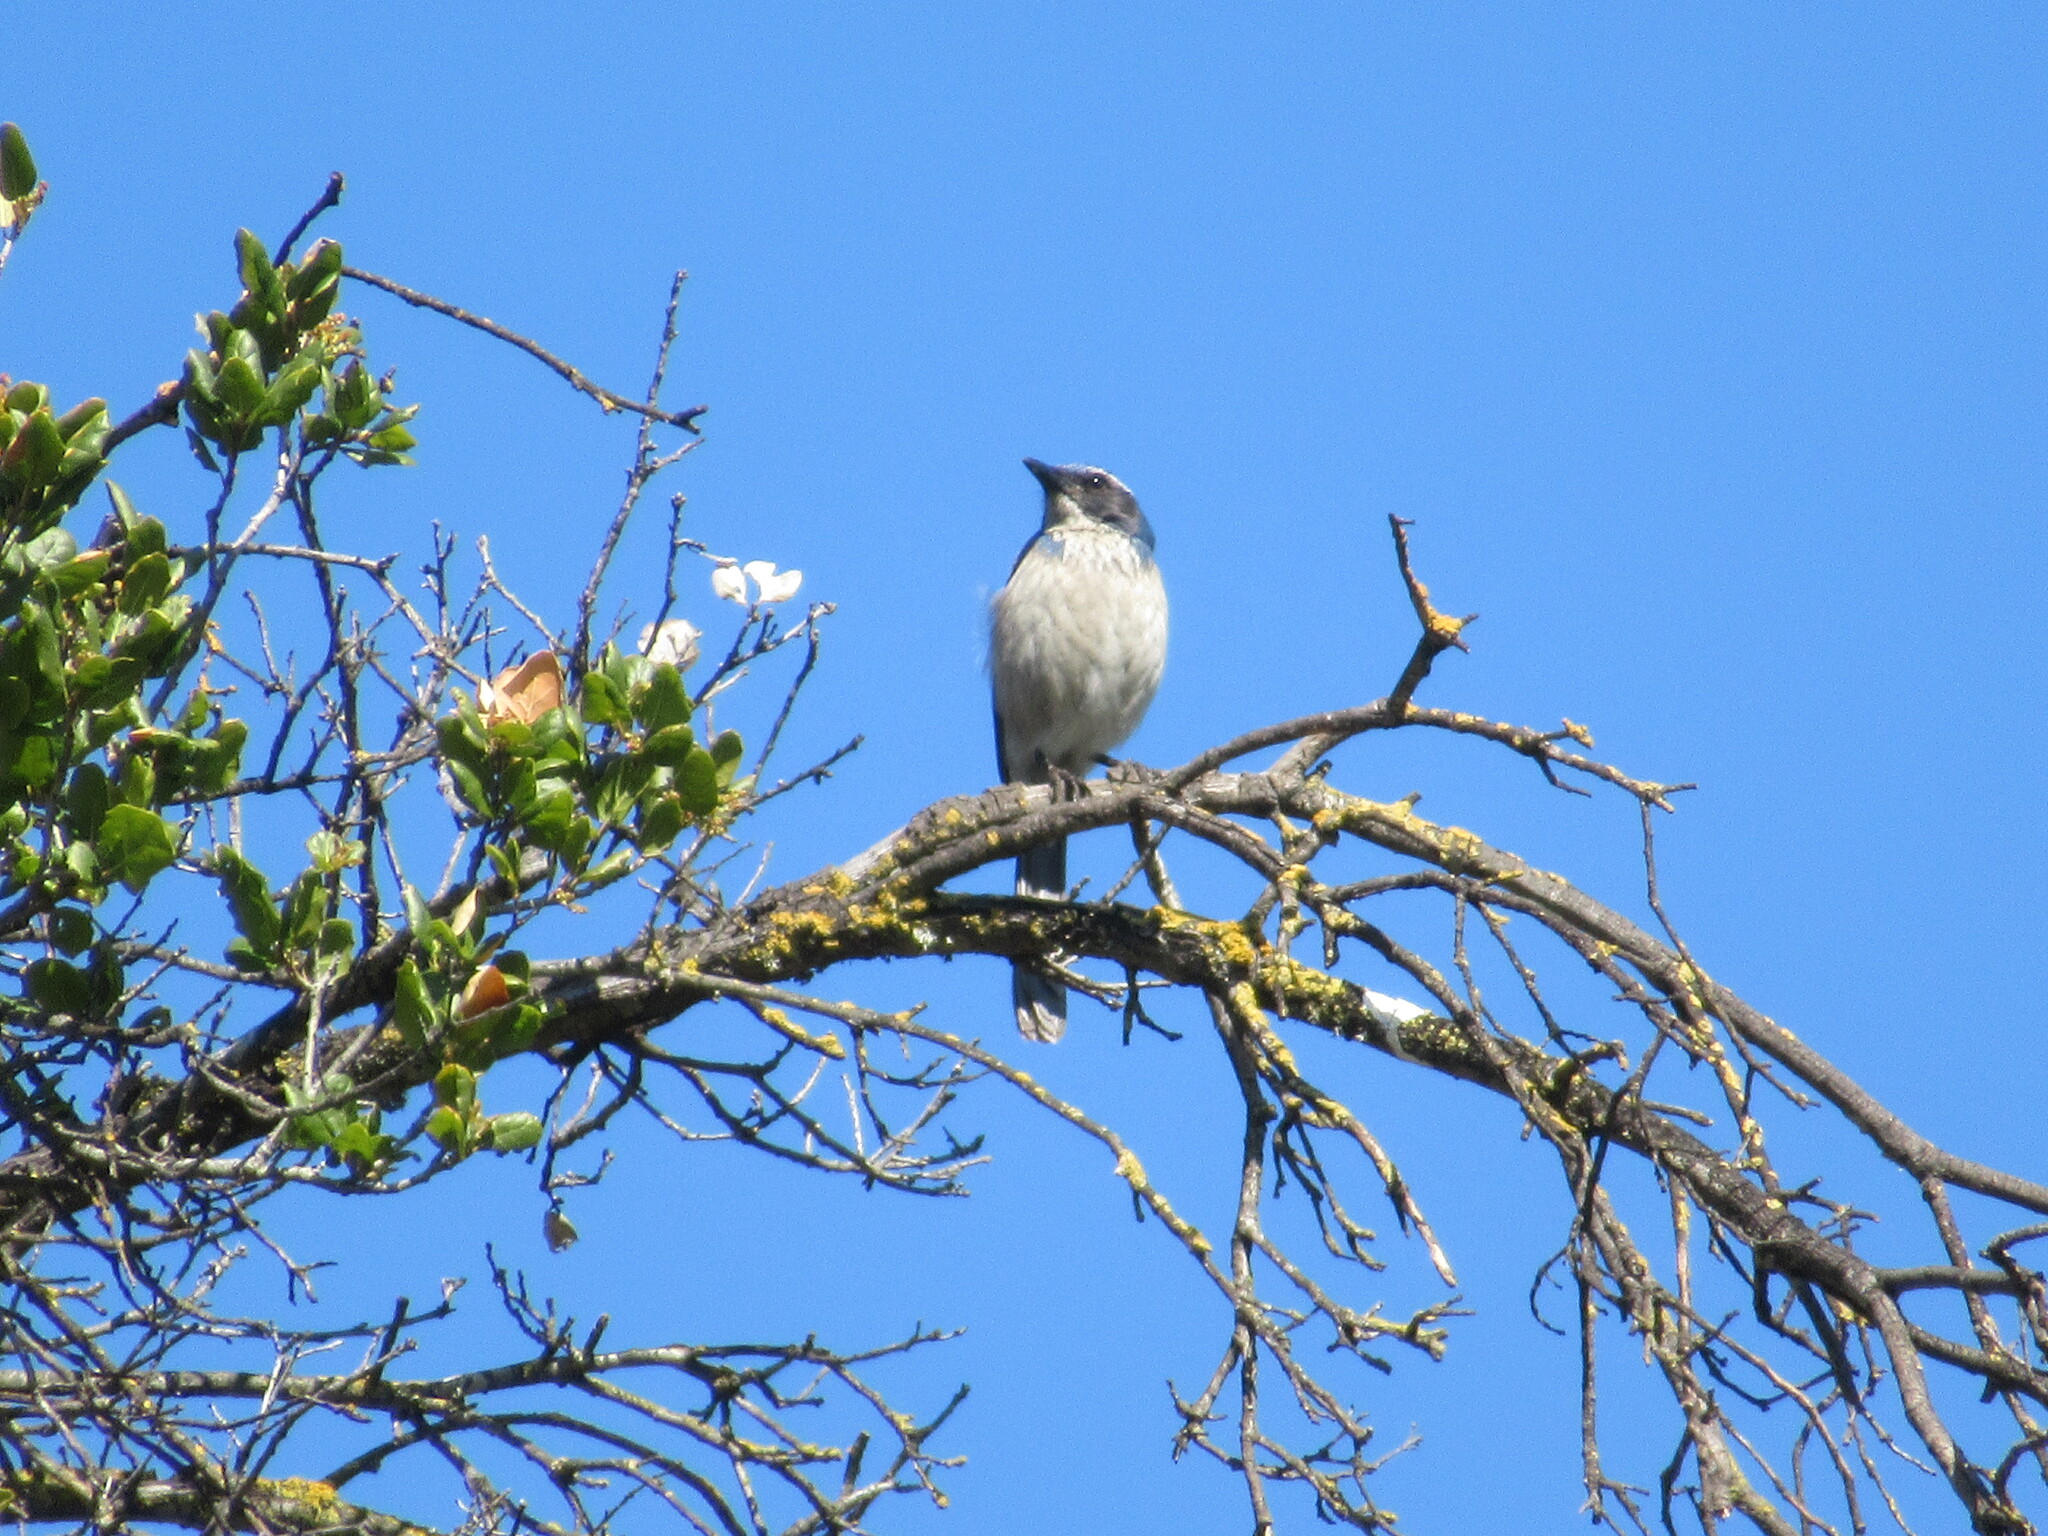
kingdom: Animalia
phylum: Chordata
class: Aves
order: Passeriformes
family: Corvidae
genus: Aphelocoma
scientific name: Aphelocoma californica
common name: California scrub-jay
